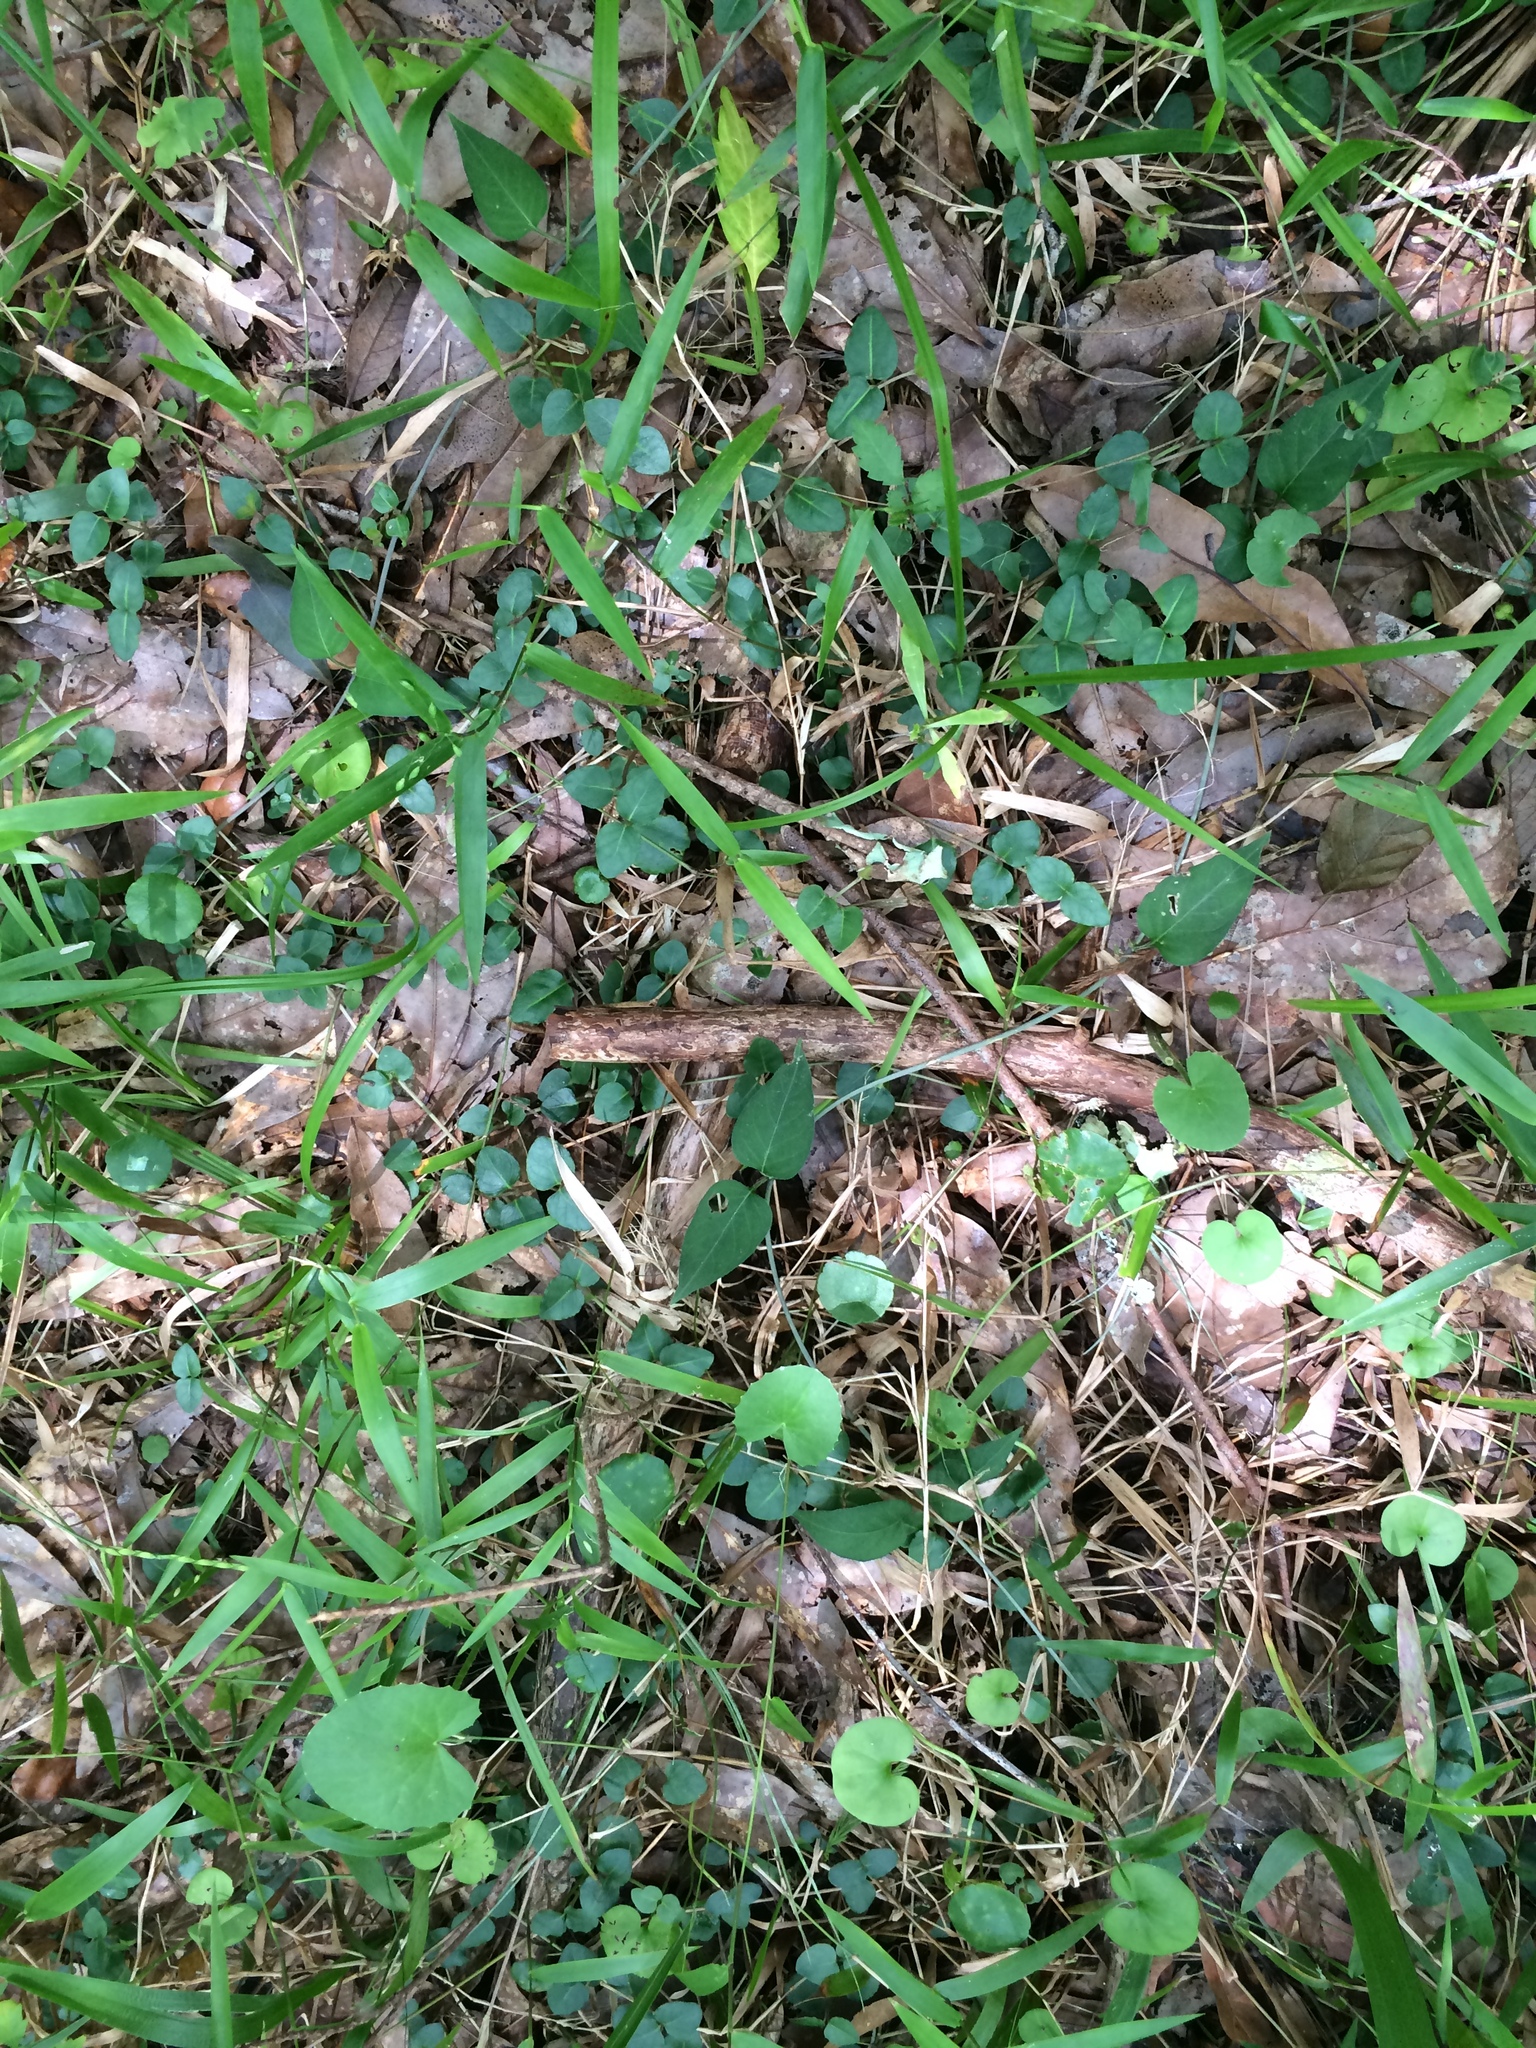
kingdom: Plantae
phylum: Tracheophyta
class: Magnoliopsida
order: Gentianales
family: Rubiaceae
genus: Mitchella
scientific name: Mitchella repens
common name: Partridge-berry
